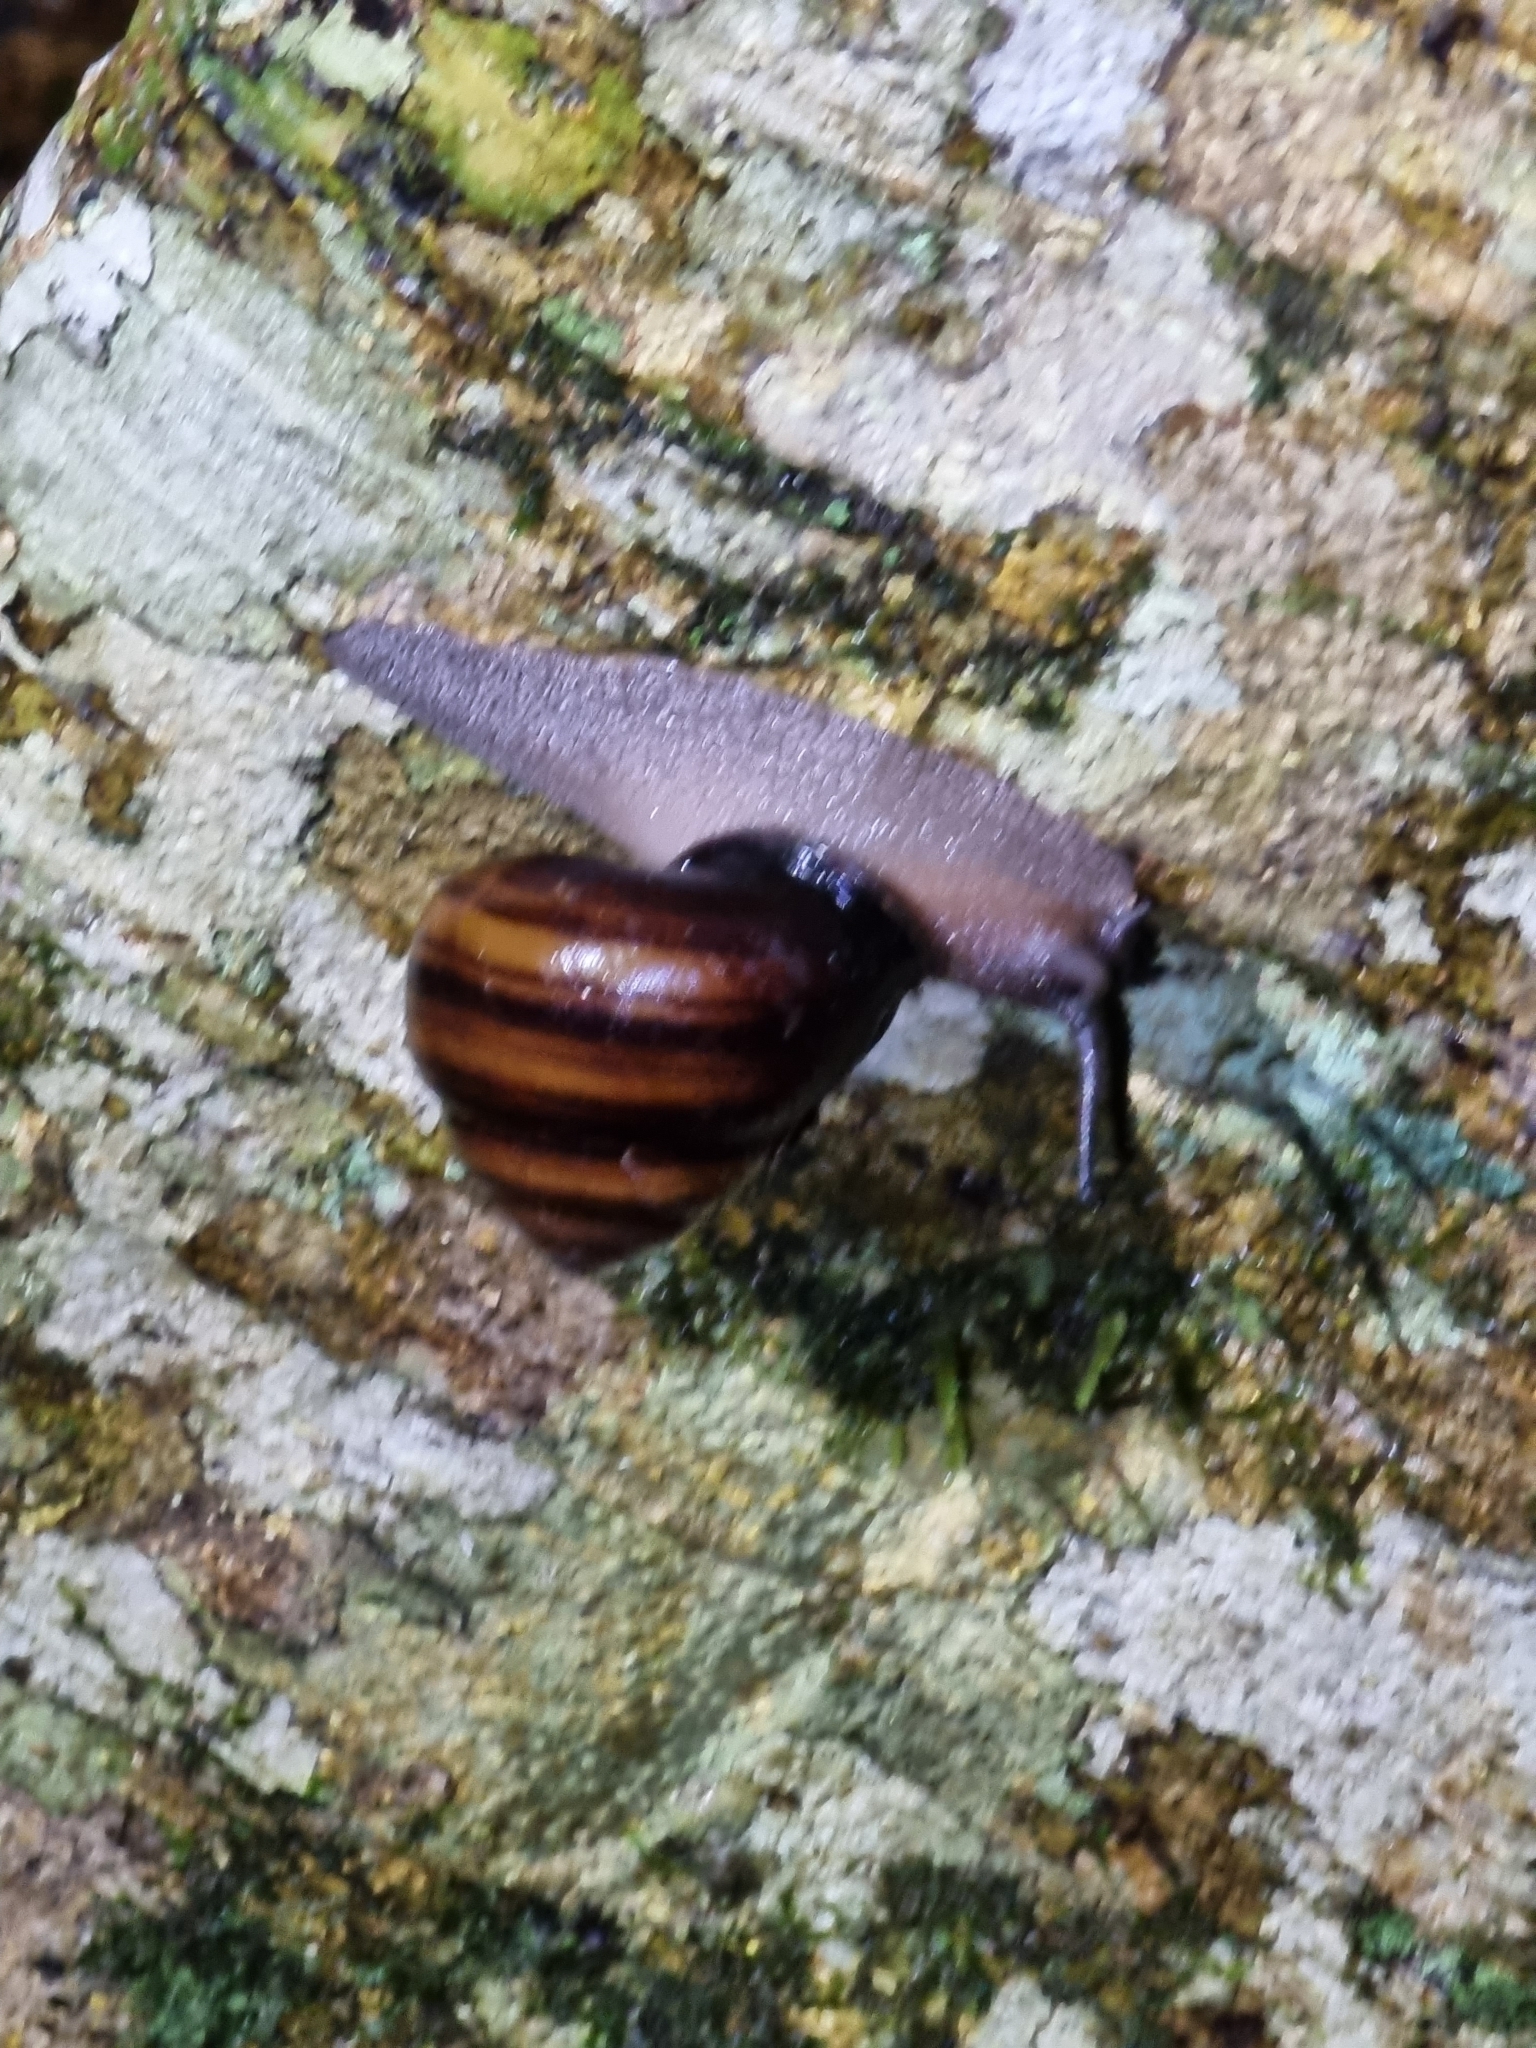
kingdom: Animalia
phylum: Mollusca
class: Gastropoda
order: Stylommatophora
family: Camaenidae
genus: Sphaerospira
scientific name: Sphaerospira fraseri
